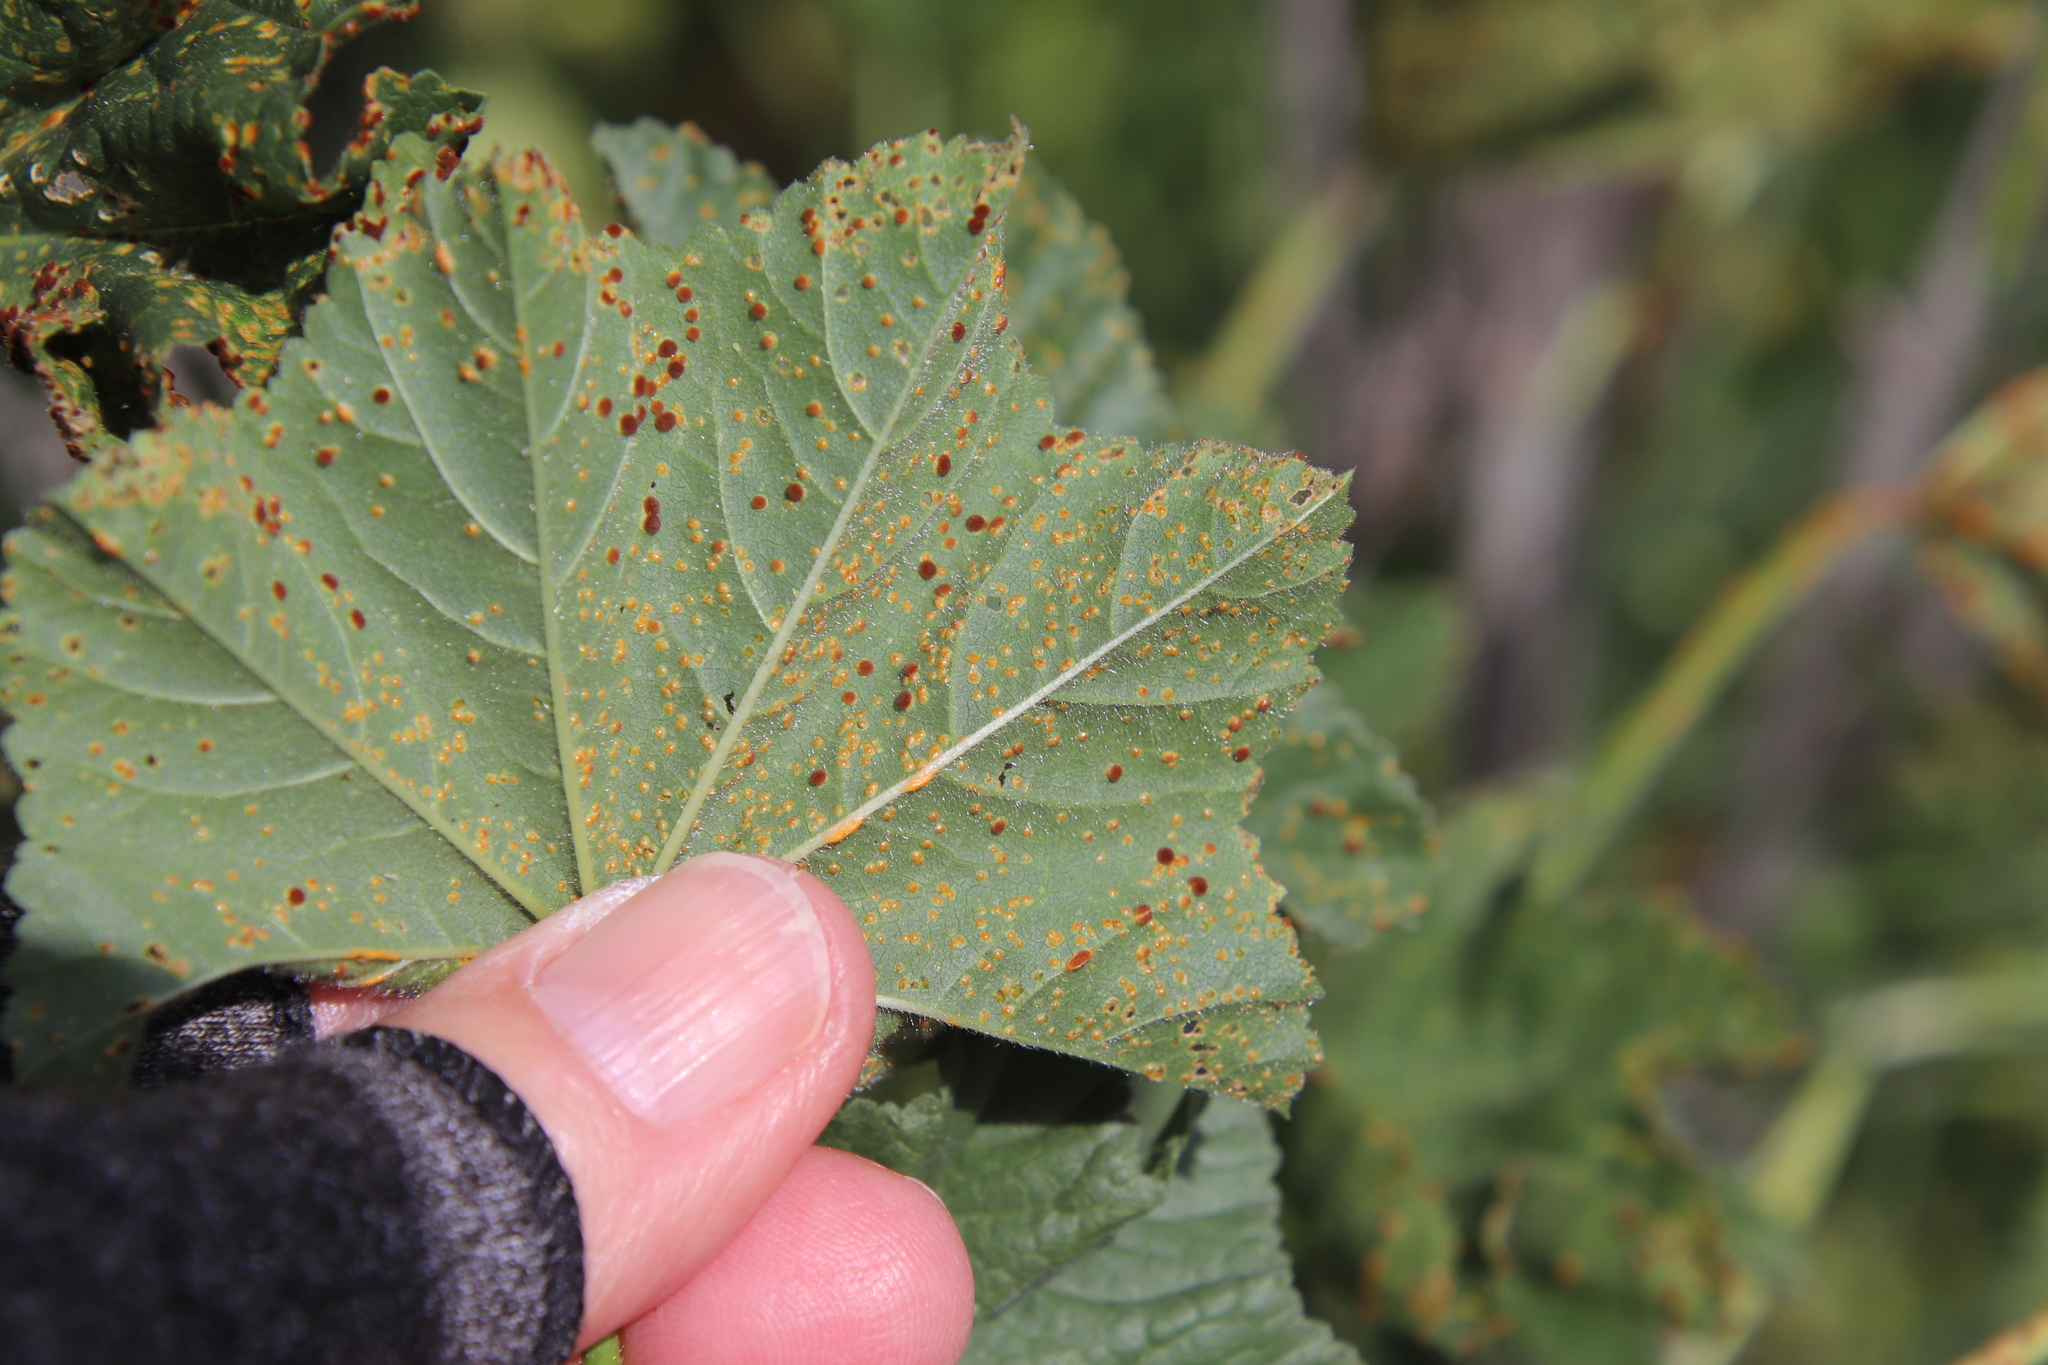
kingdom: Fungi
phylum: Basidiomycota
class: Pucciniomycetes
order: Pucciniales
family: Pucciniaceae
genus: Puccinia
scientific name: Puccinia malvacearum
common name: Hollyhock rust
